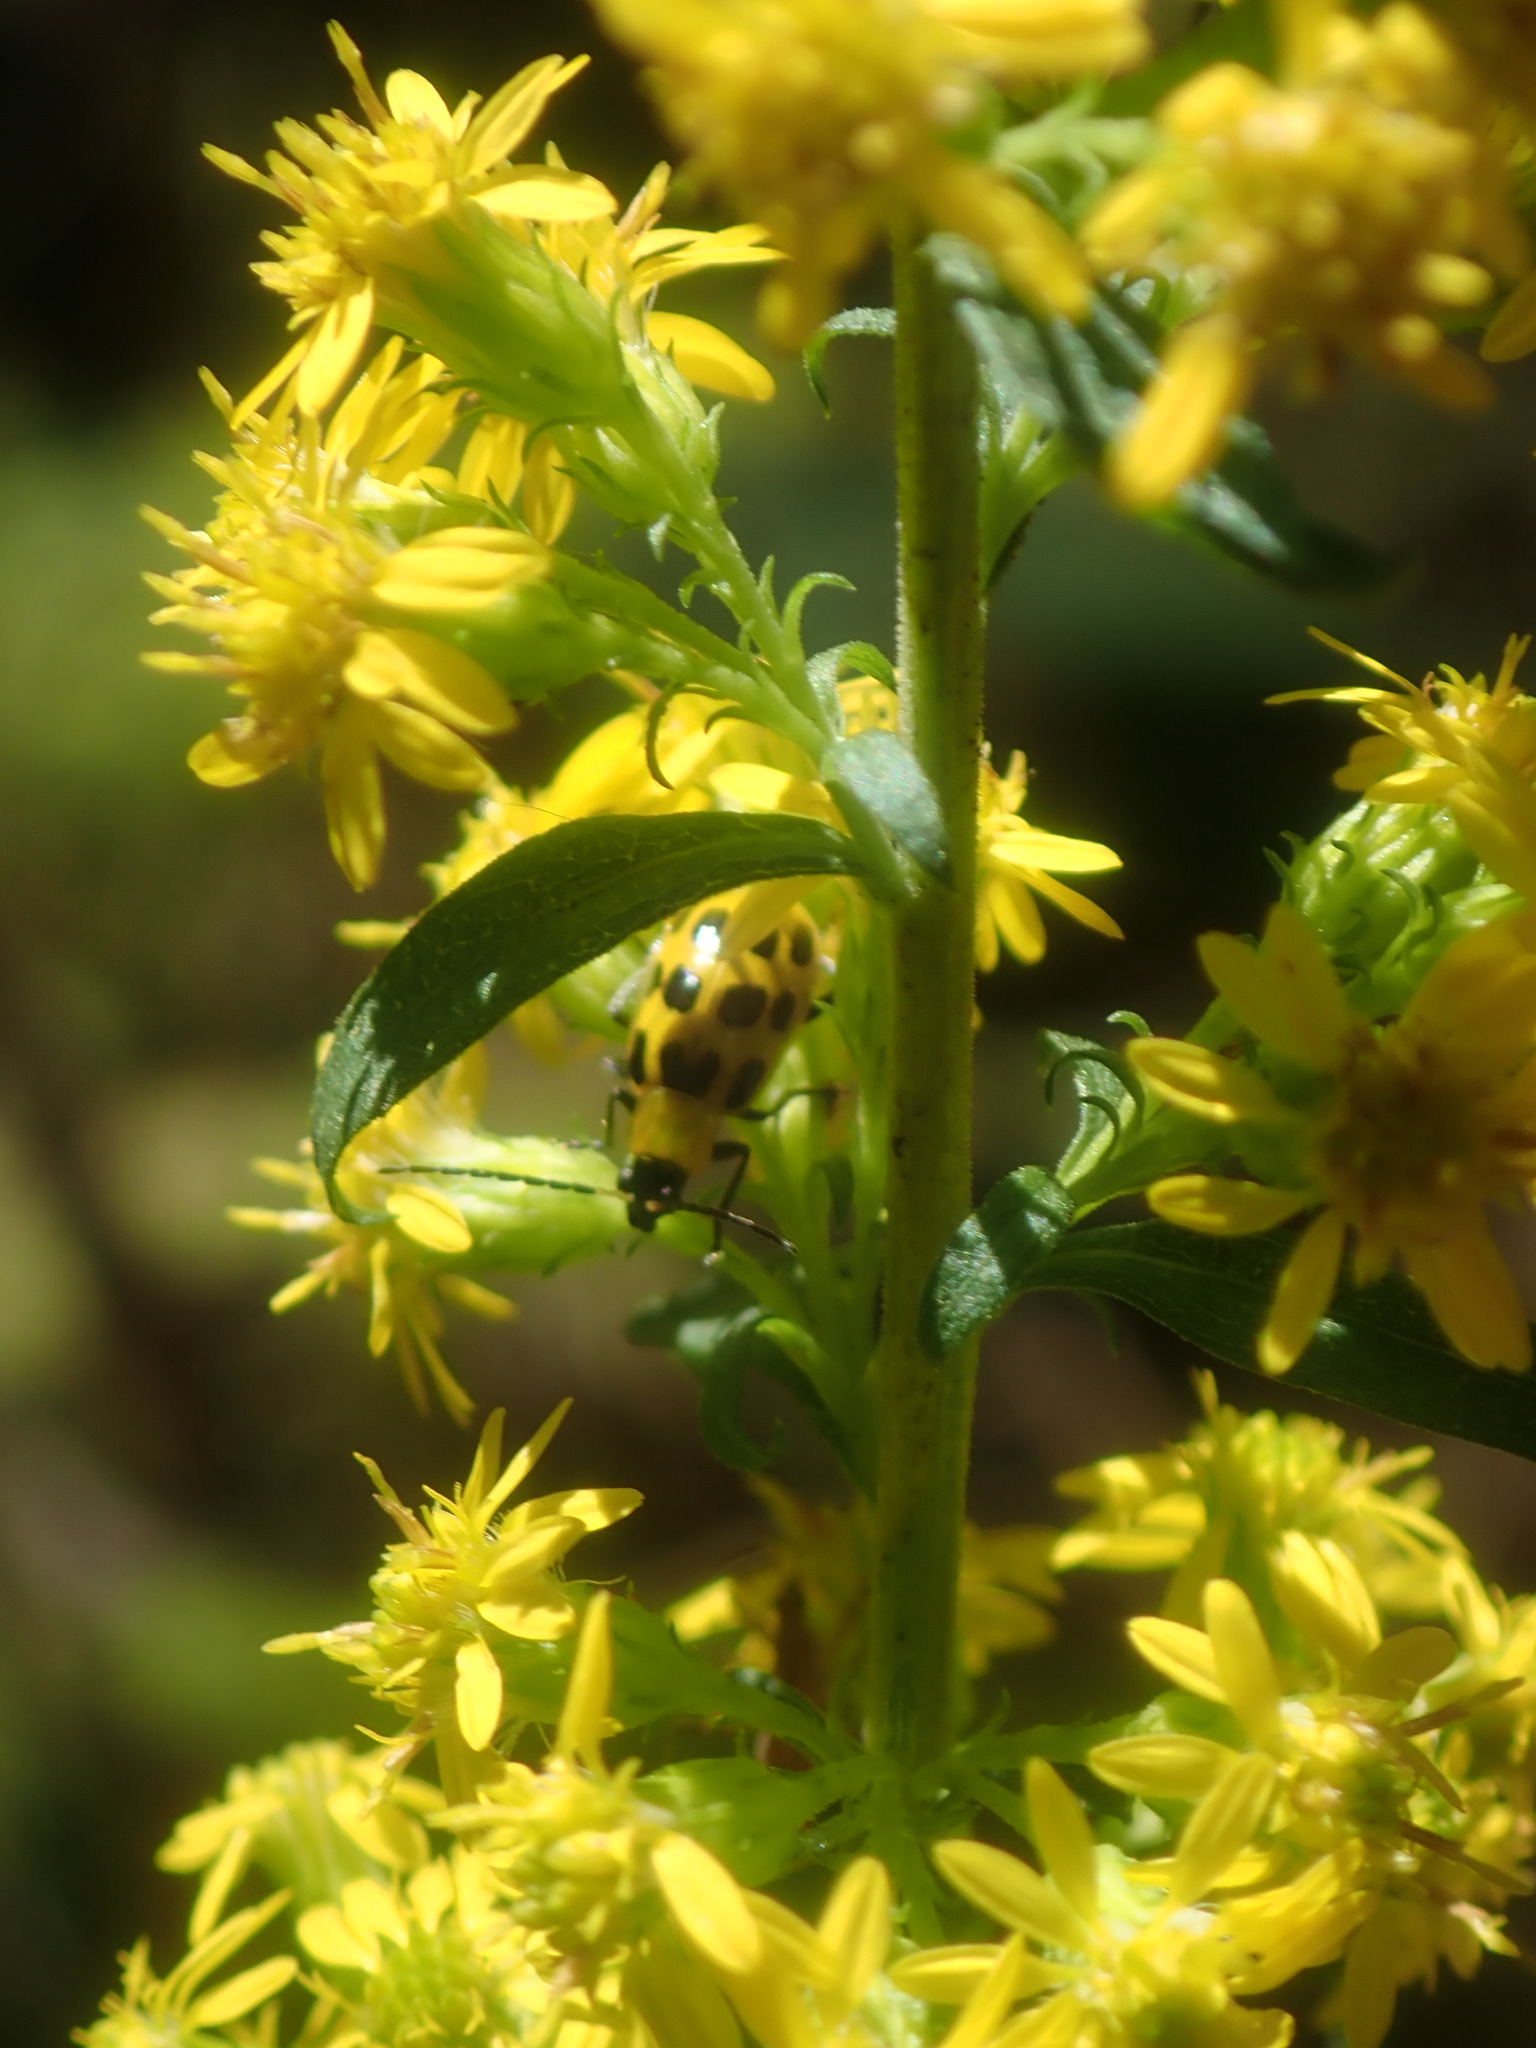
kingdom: Animalia
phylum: Arthropoda
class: Insecta
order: Coleoptera
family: Chrysomelidae
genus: Diabrotica
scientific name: Diabrotica undecimpunctata
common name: Spotted cucumber beetle
